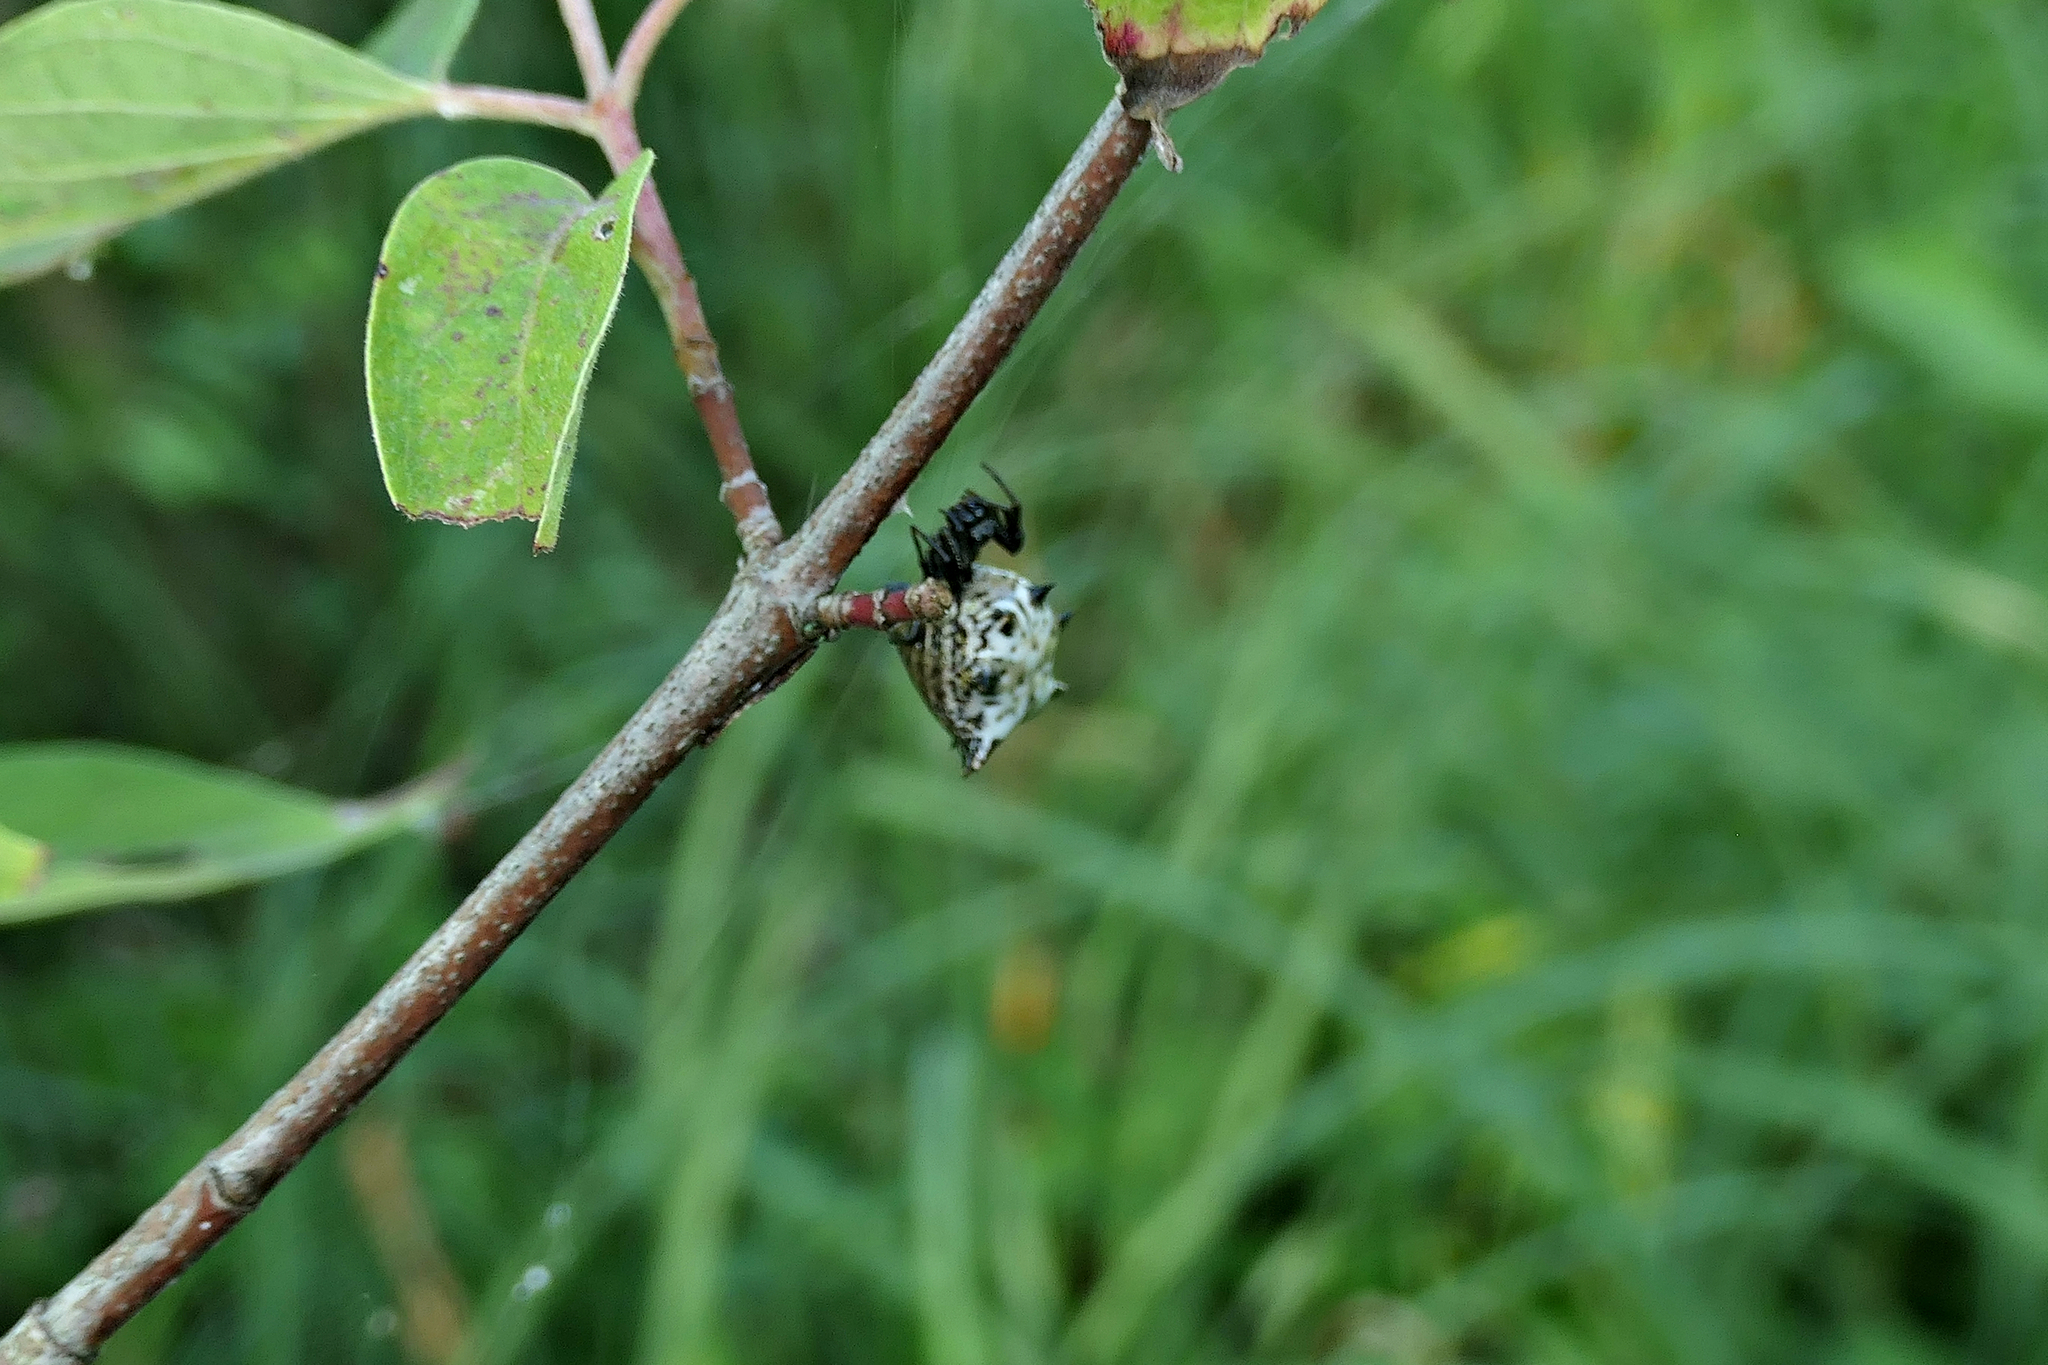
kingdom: Animalia
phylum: Arthropoda
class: Arachnida
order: Araneae
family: Araneidae
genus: Micrathena
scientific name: Micrathena gracilis
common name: Orb weavers
